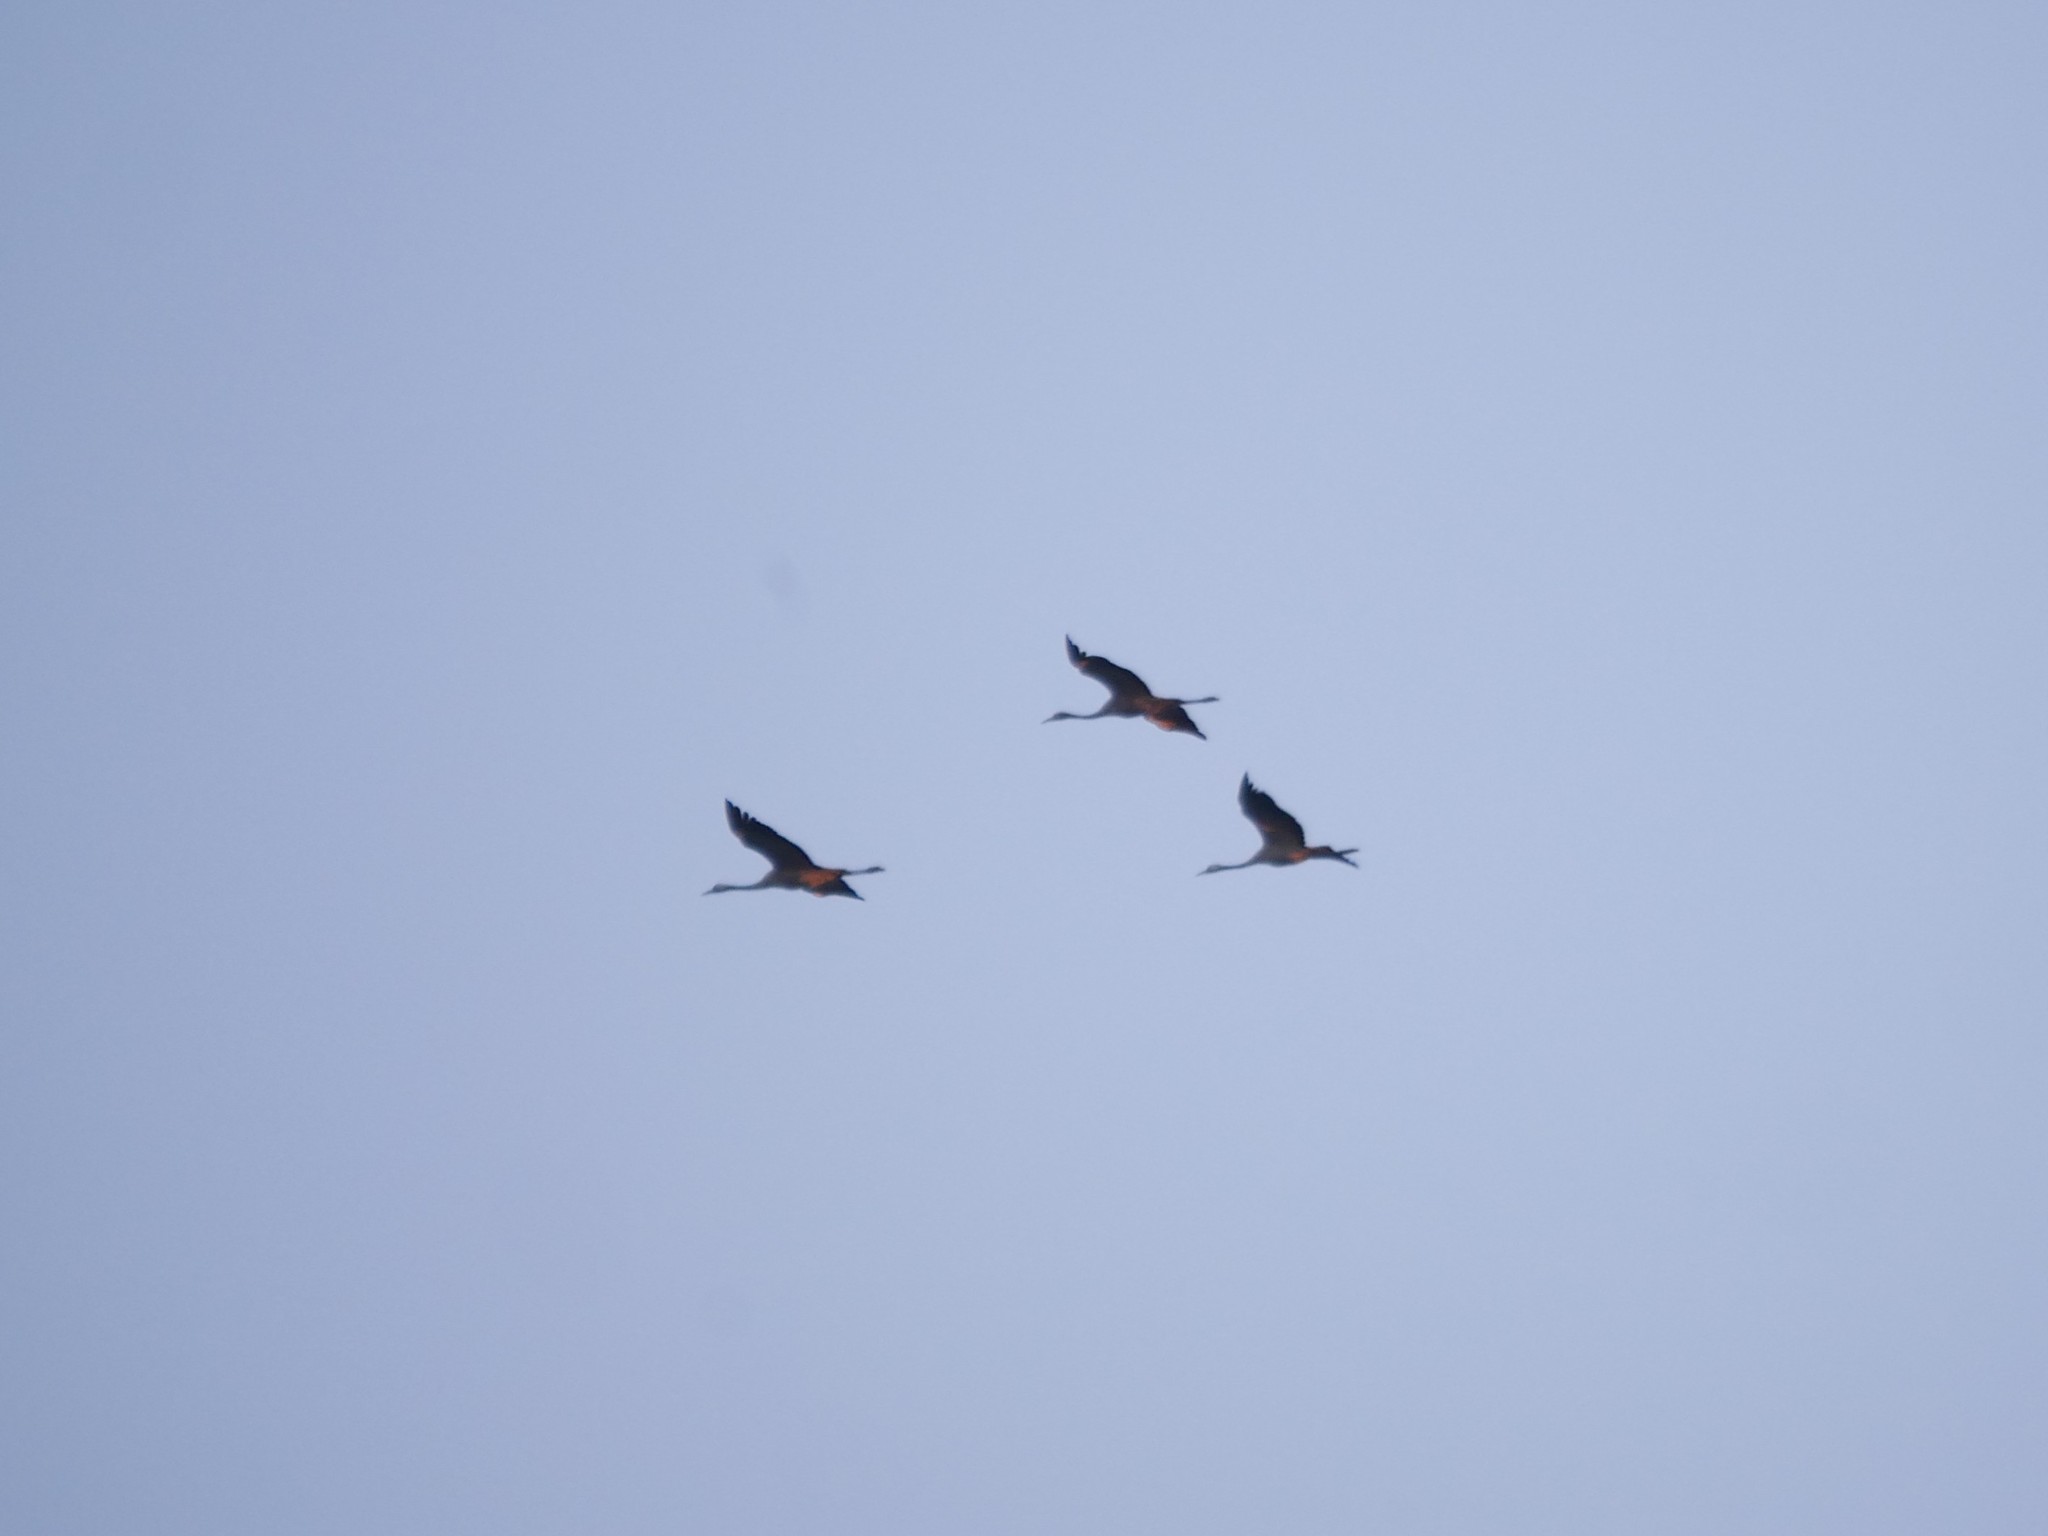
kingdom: Animalia
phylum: Chordata
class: Aves
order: Gruiformes
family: Gruidae
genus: Grus
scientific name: Grus grus
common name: Common crane
